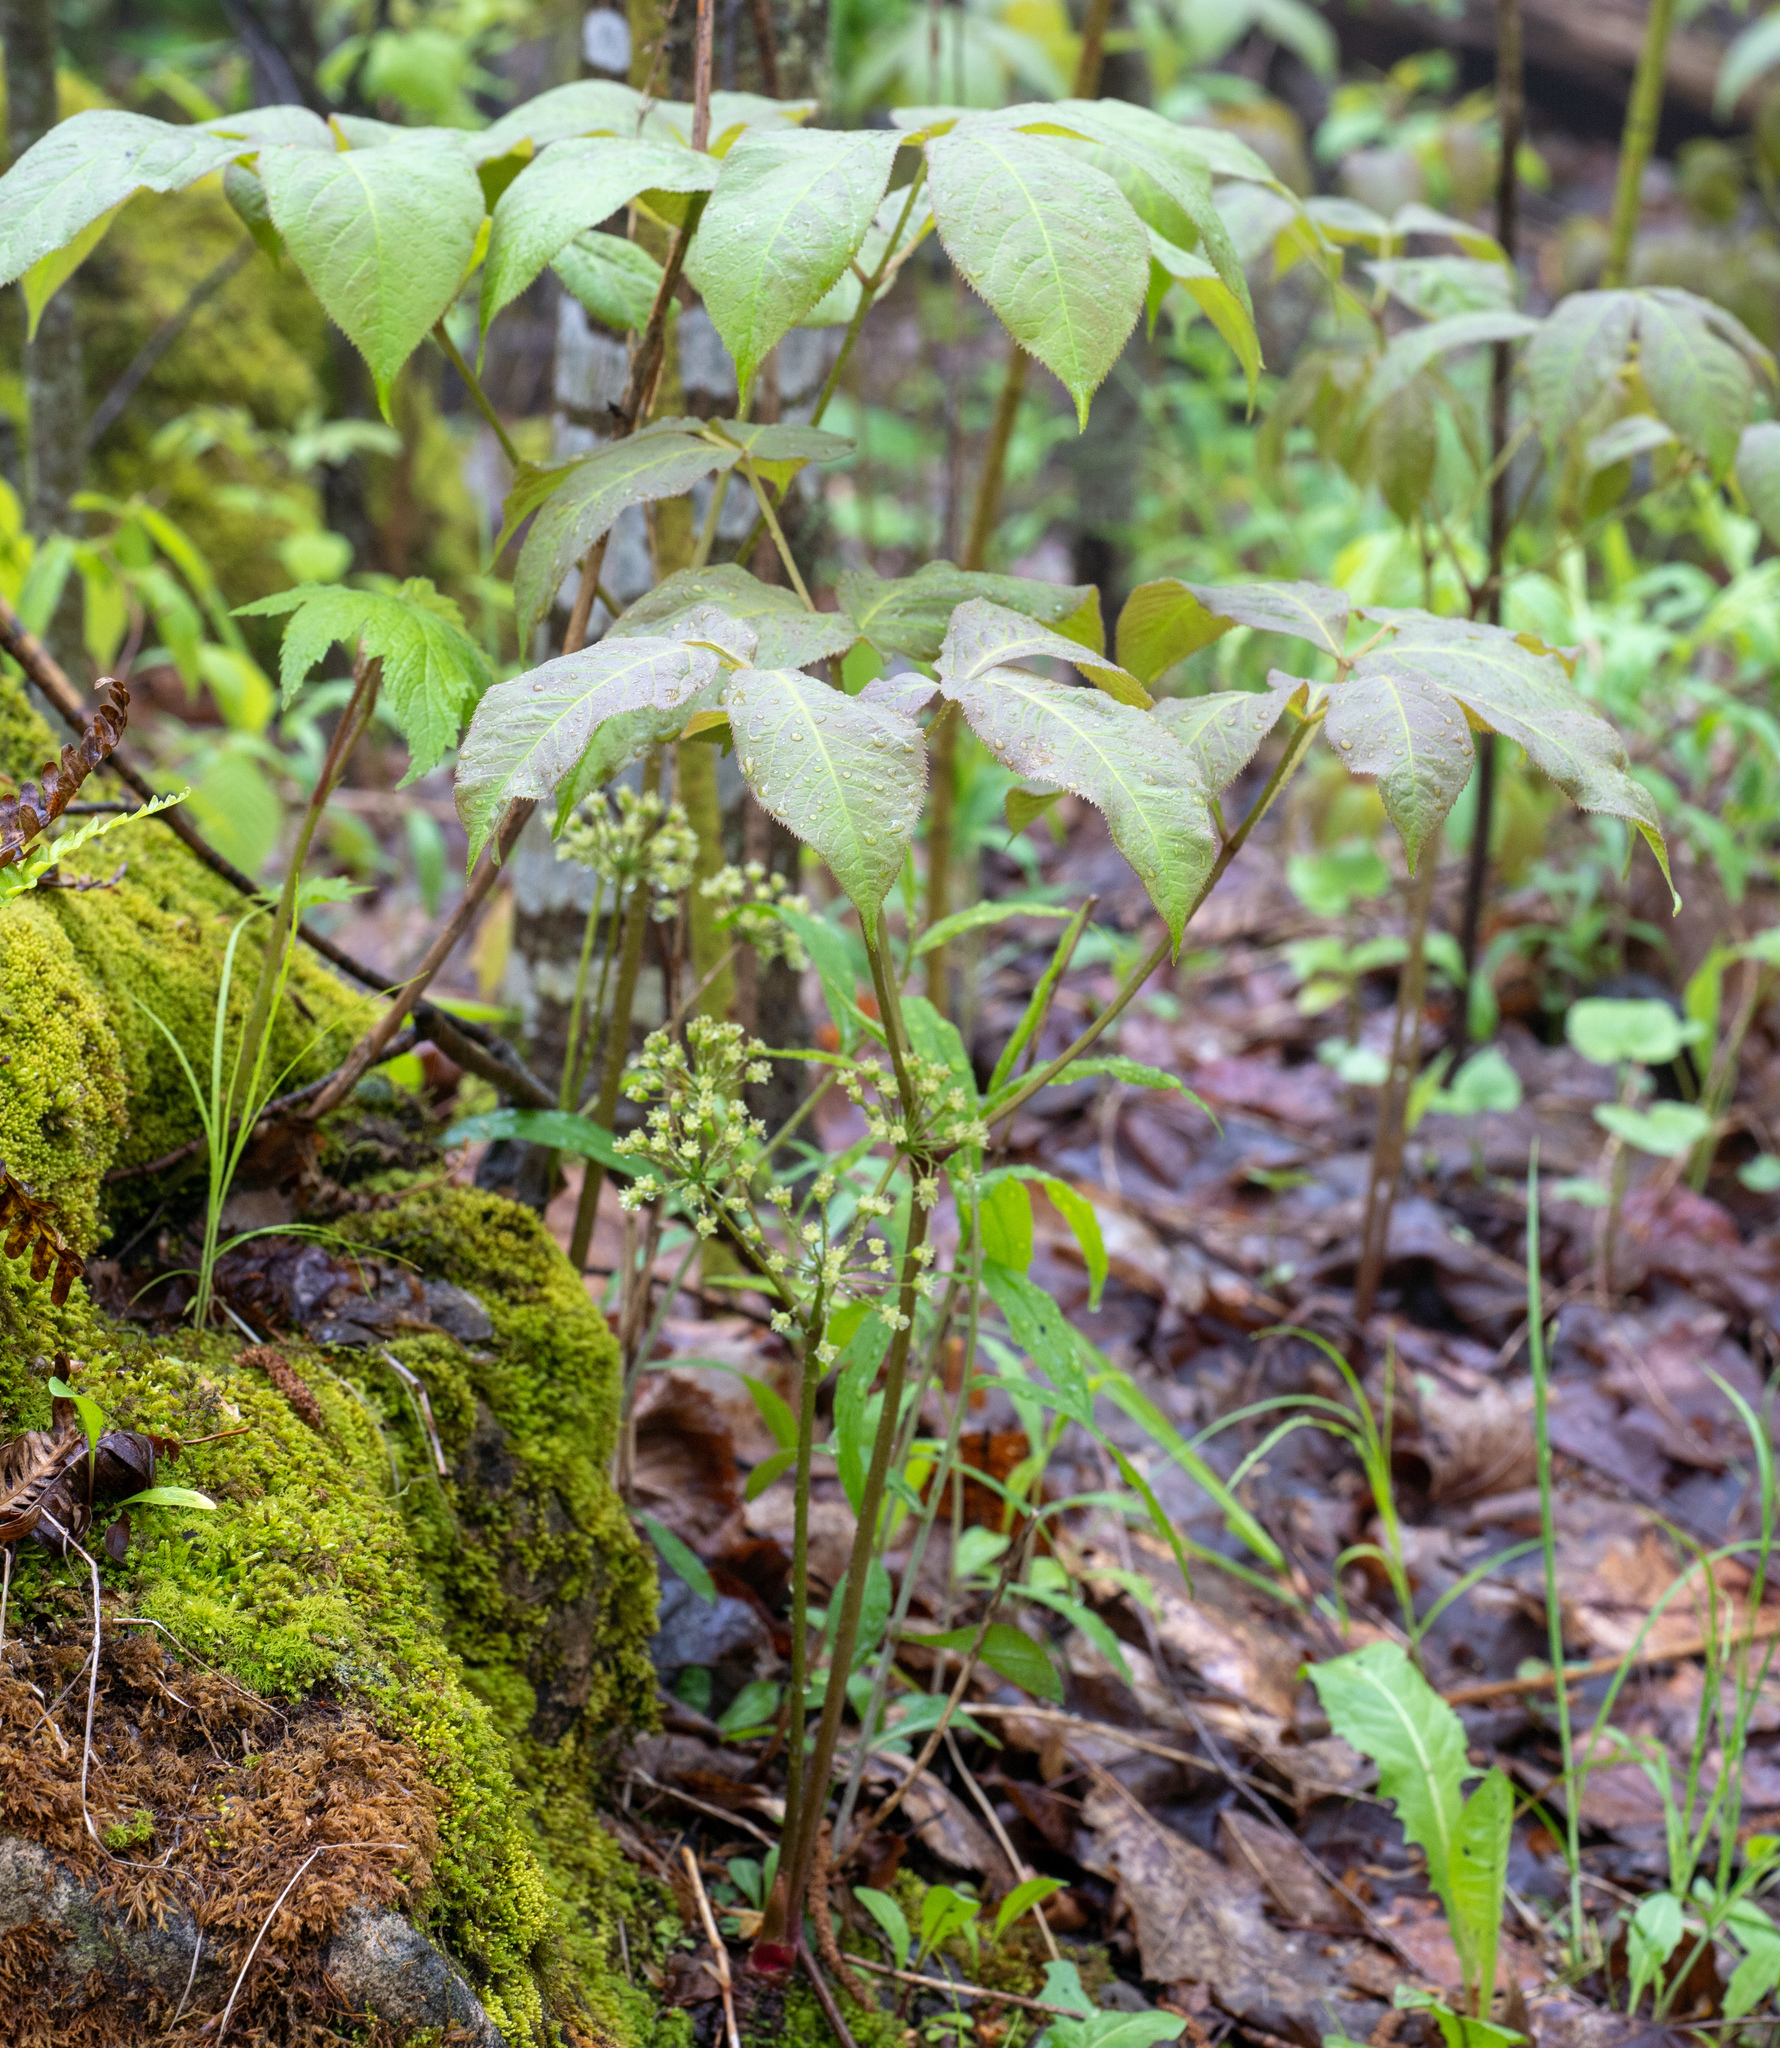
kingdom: Plantae
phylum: Tracheophyta
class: Magnoliopsida
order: Apiales
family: Araliaceae
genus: Aralia
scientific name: Aralia nudicaulis
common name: Wild sarsaparilla
